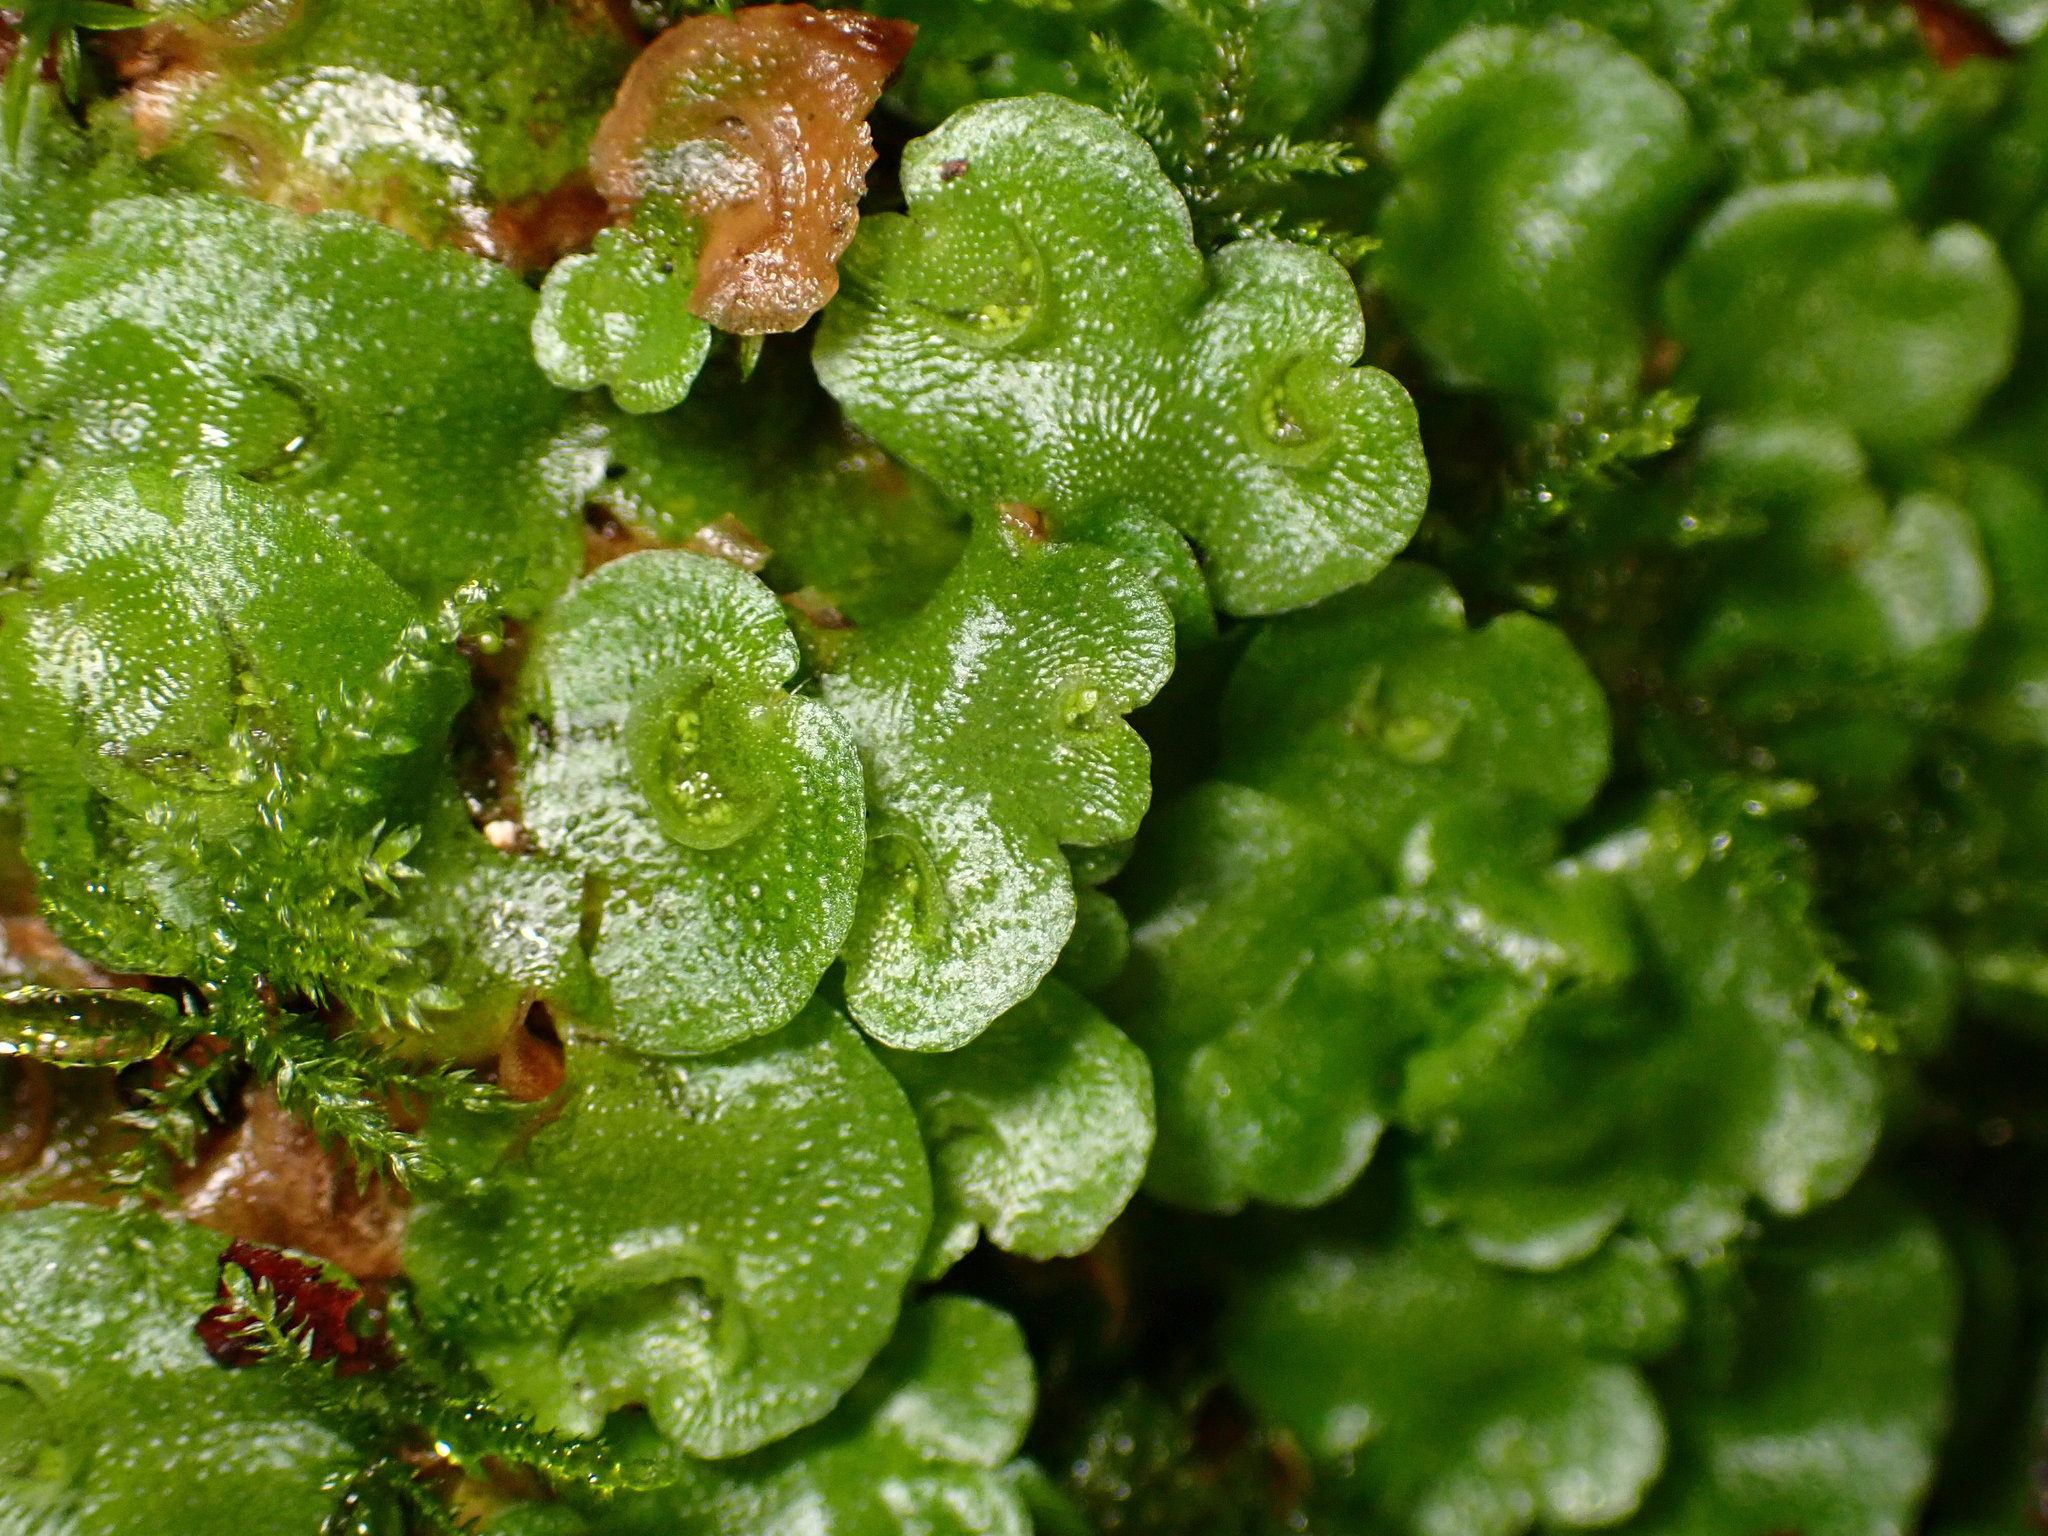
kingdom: Plantae
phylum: Marchantiophyta
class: Marchantiopsida
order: Lunulariales
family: Lunulariaceae
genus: Lunularia
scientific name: Lunularia cruciata
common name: Crescent-cup liverwort
